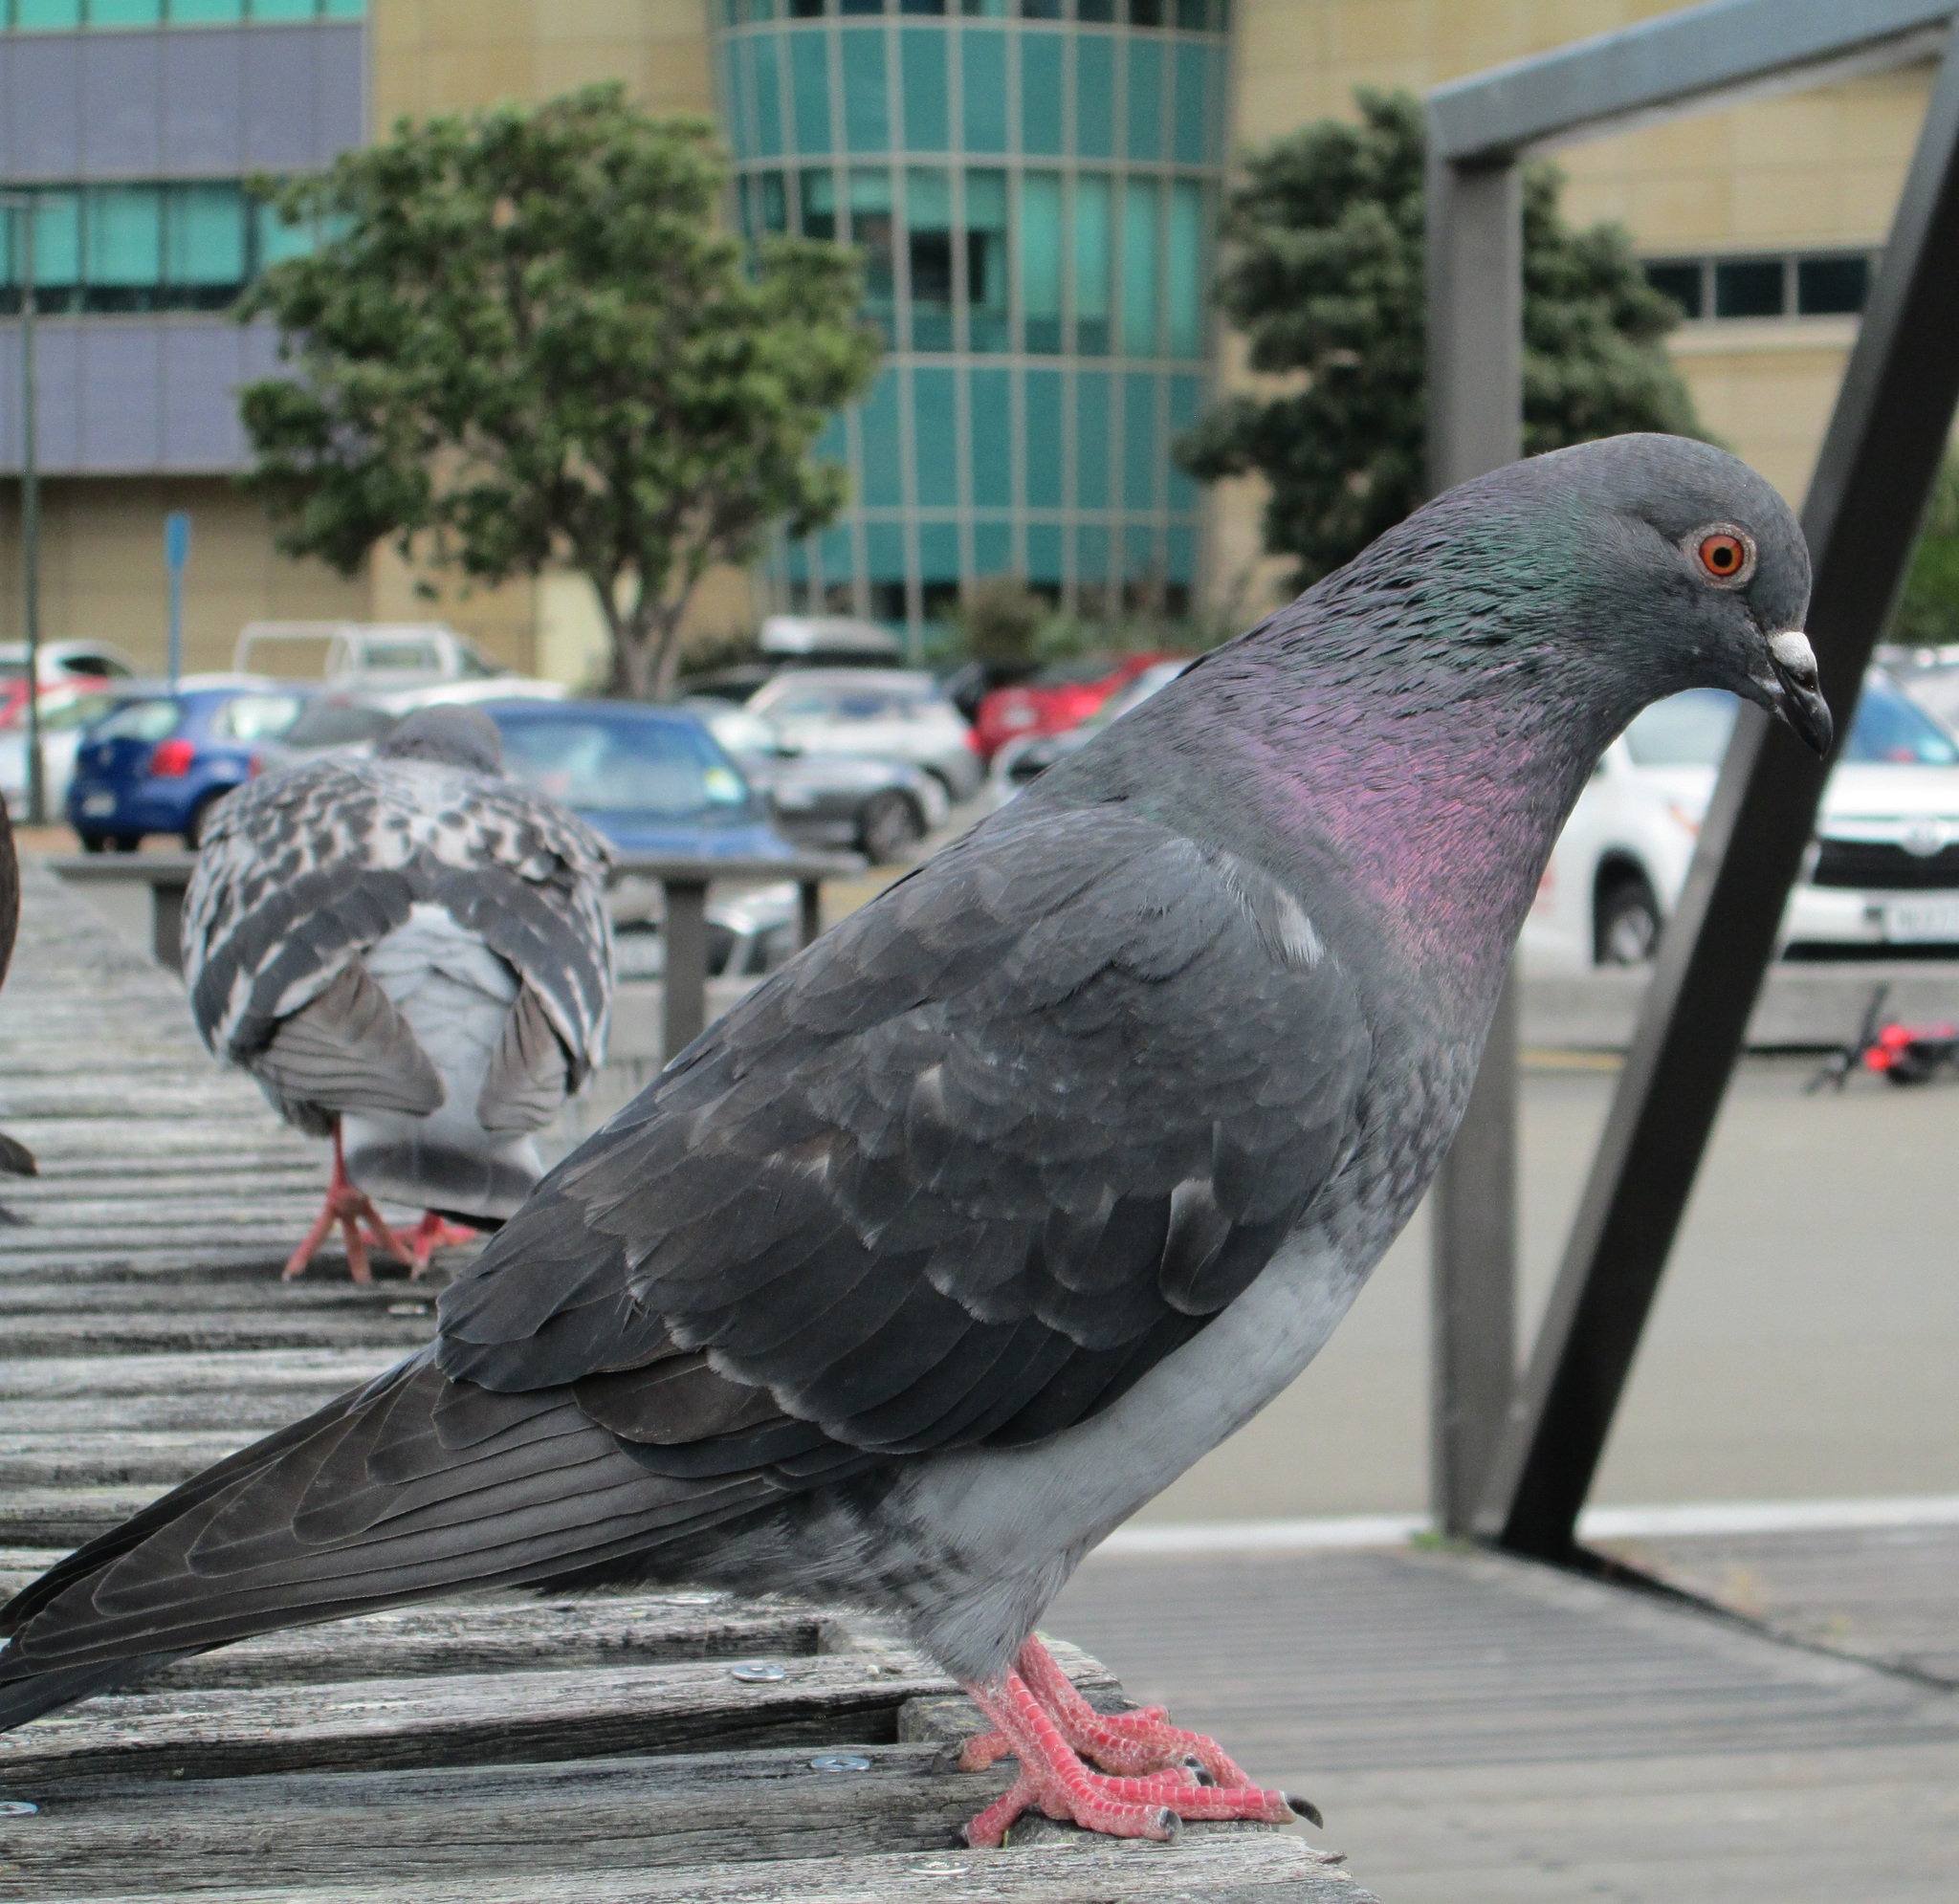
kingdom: Animalia
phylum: Chordata
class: Aves
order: Columbiformes
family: Columbidae
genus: Columba
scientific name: Columba livia
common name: Rock pigeon
